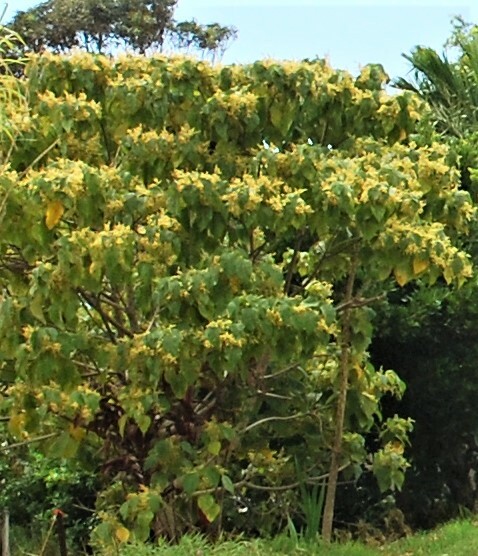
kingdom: Plantae
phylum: Tracheophyta
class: Magnoliopsida
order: Malpighiales
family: Euphorbiaceae
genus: Macaranga
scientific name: Macaranga tanarius
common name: Parasol leaf tree
